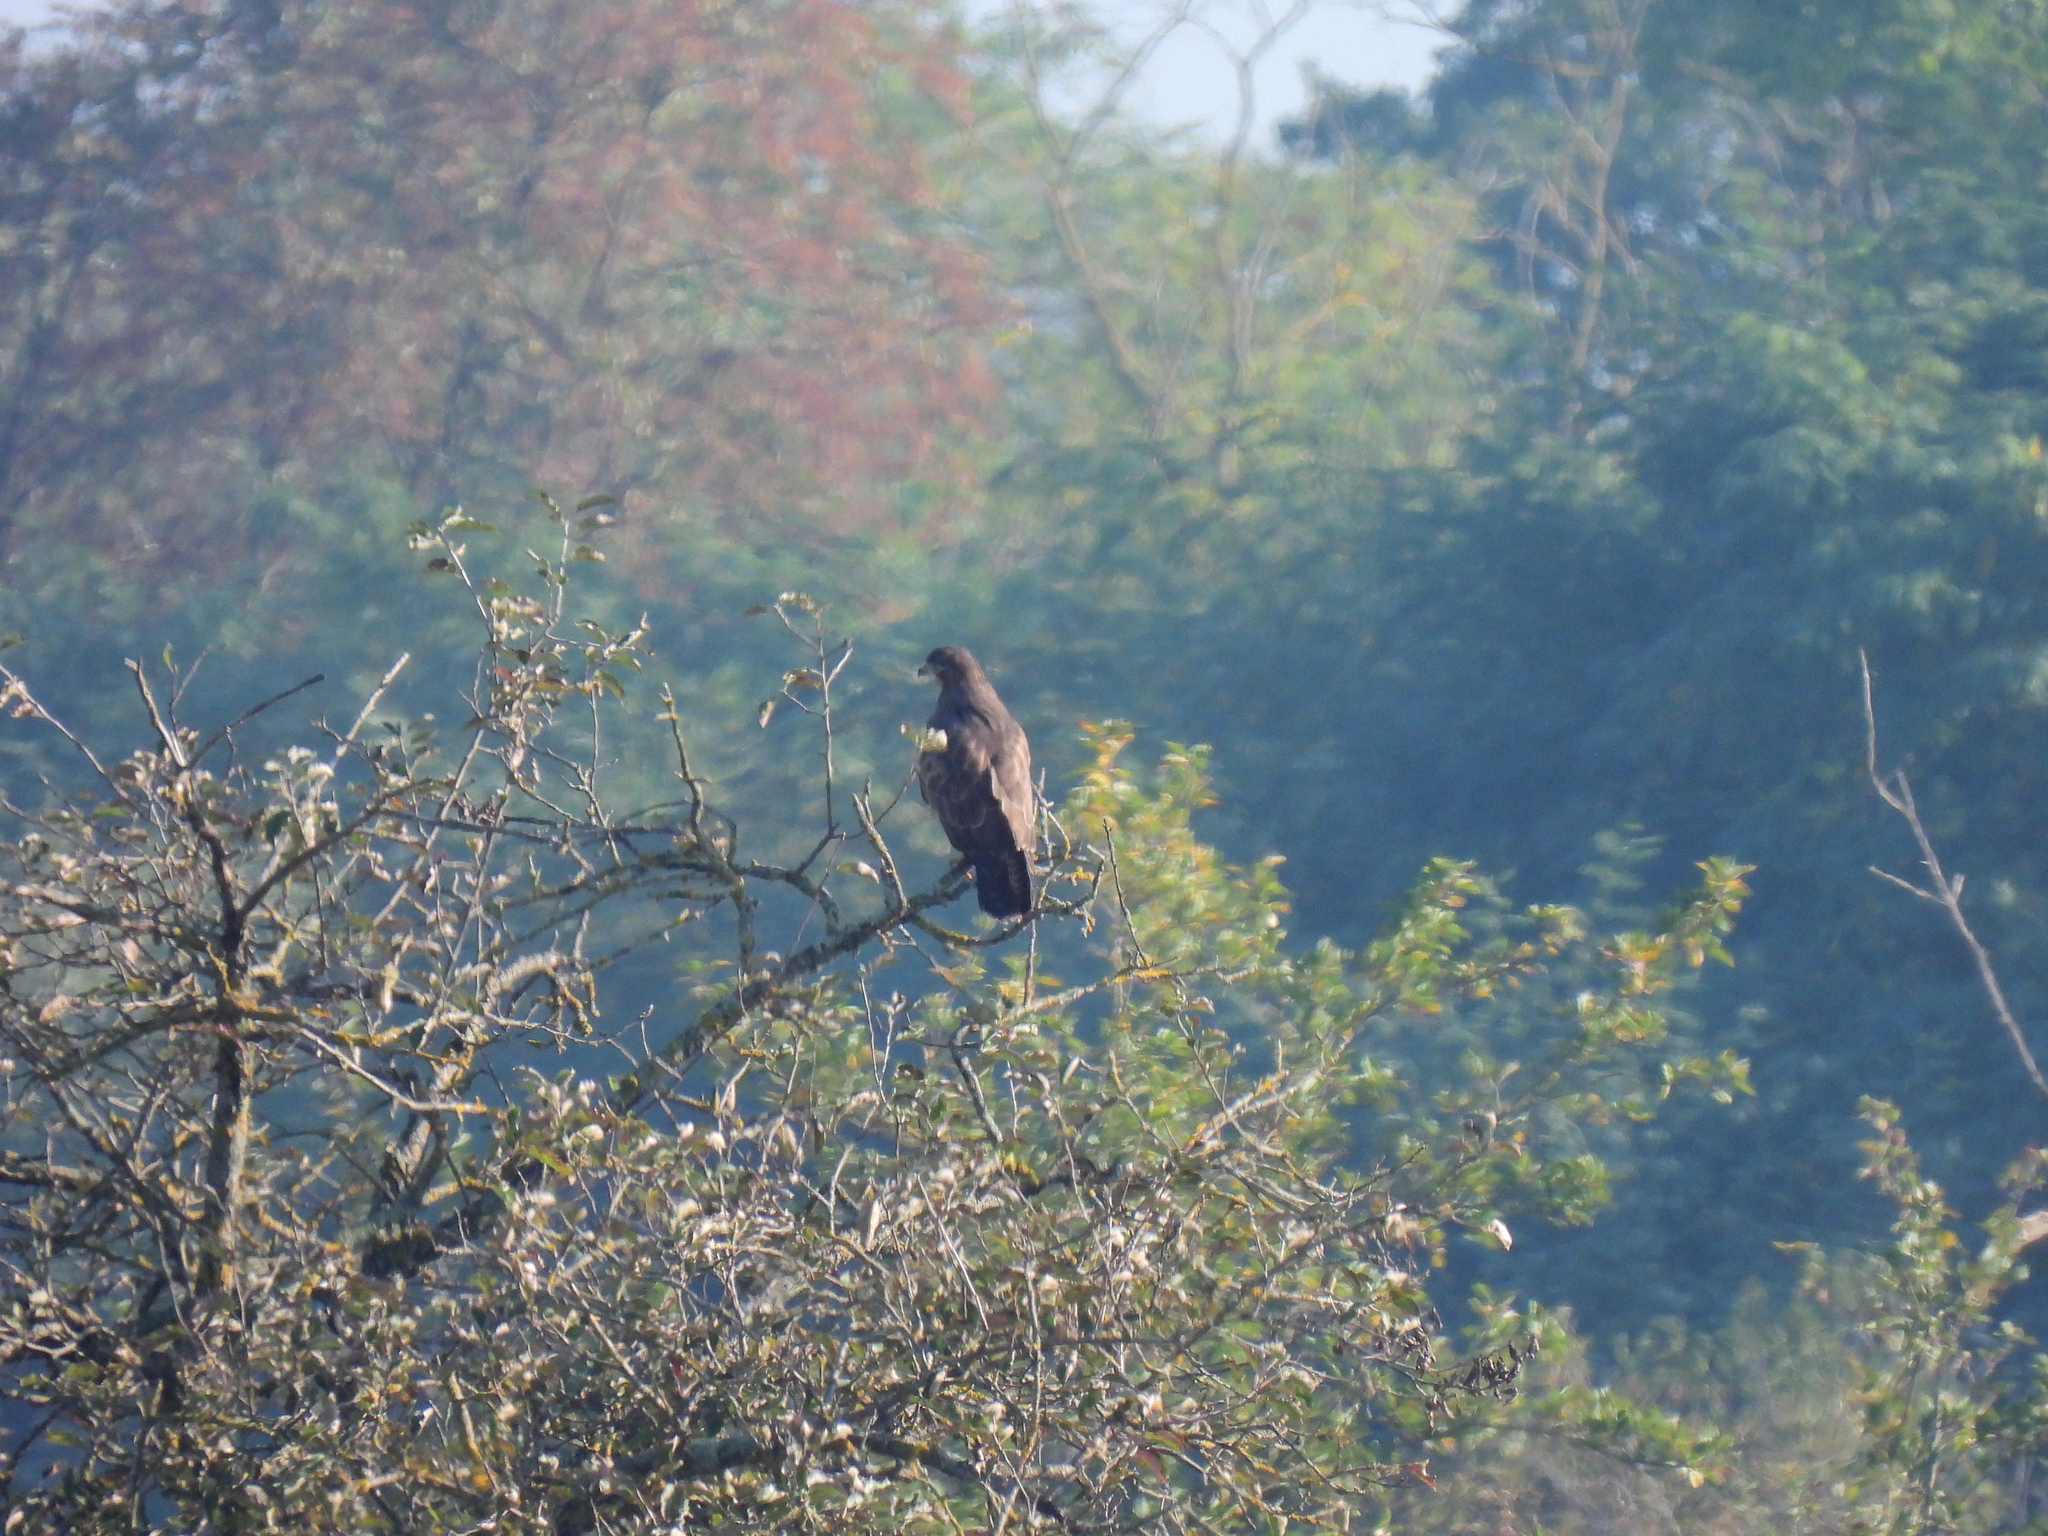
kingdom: Animalia
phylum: Chordata
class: Aves
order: Accipitriformes
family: Accipitridae
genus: Buteo
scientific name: Buteo buteo
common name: Common buzzard
